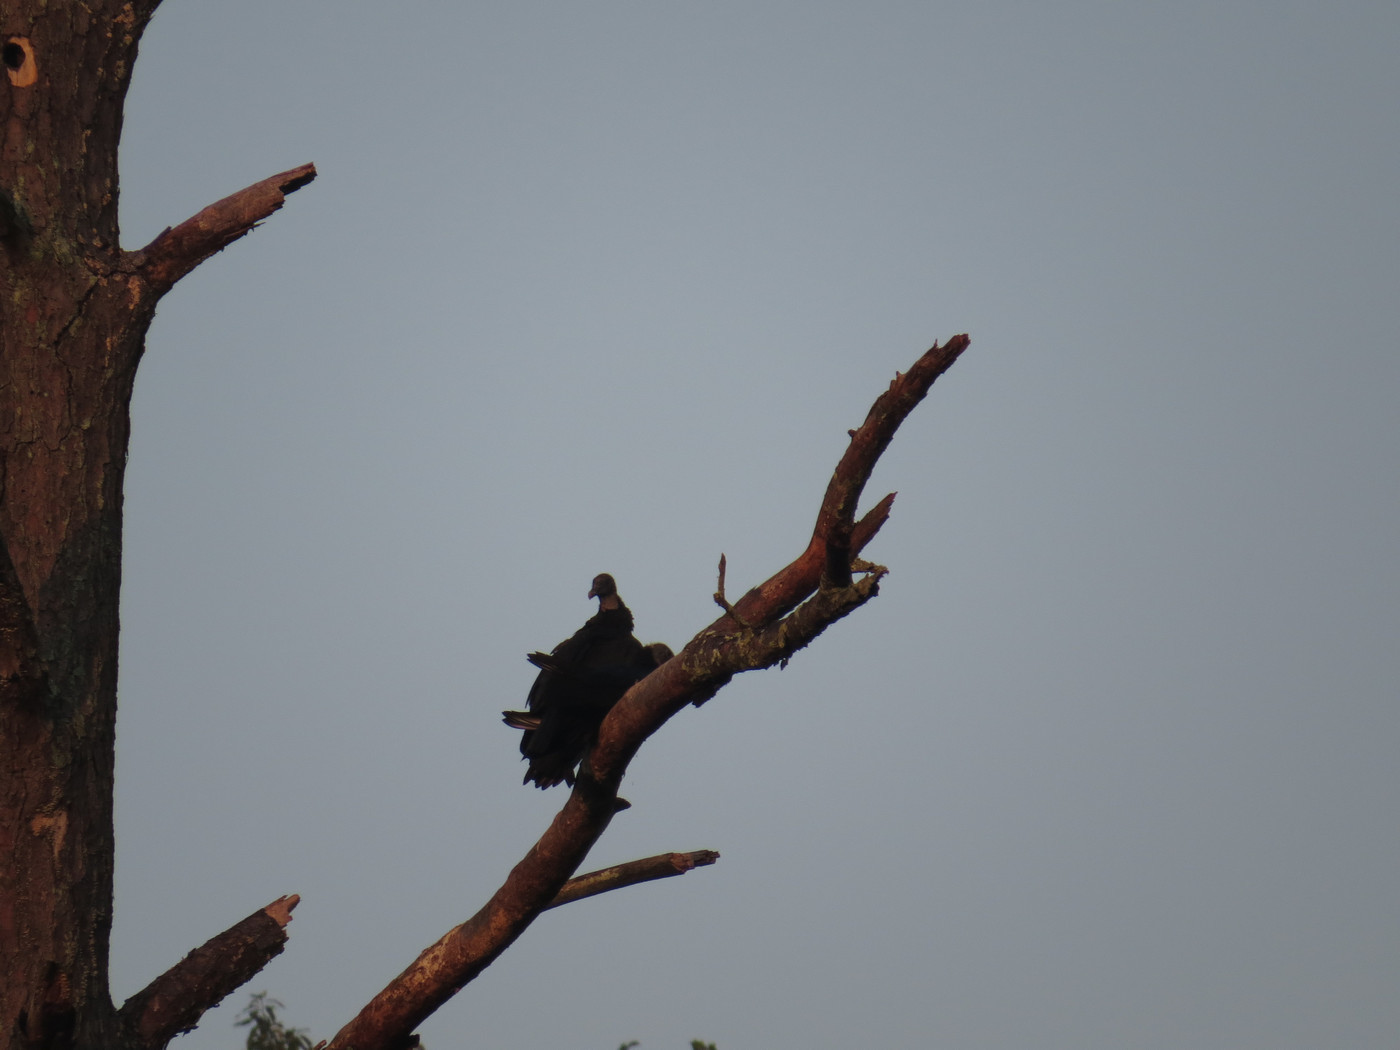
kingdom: Animalia
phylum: Chordata
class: Aves
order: Accipitriformes
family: Cathartidae
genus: Coragyps
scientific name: Coragyps atratus
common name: Black vulture
